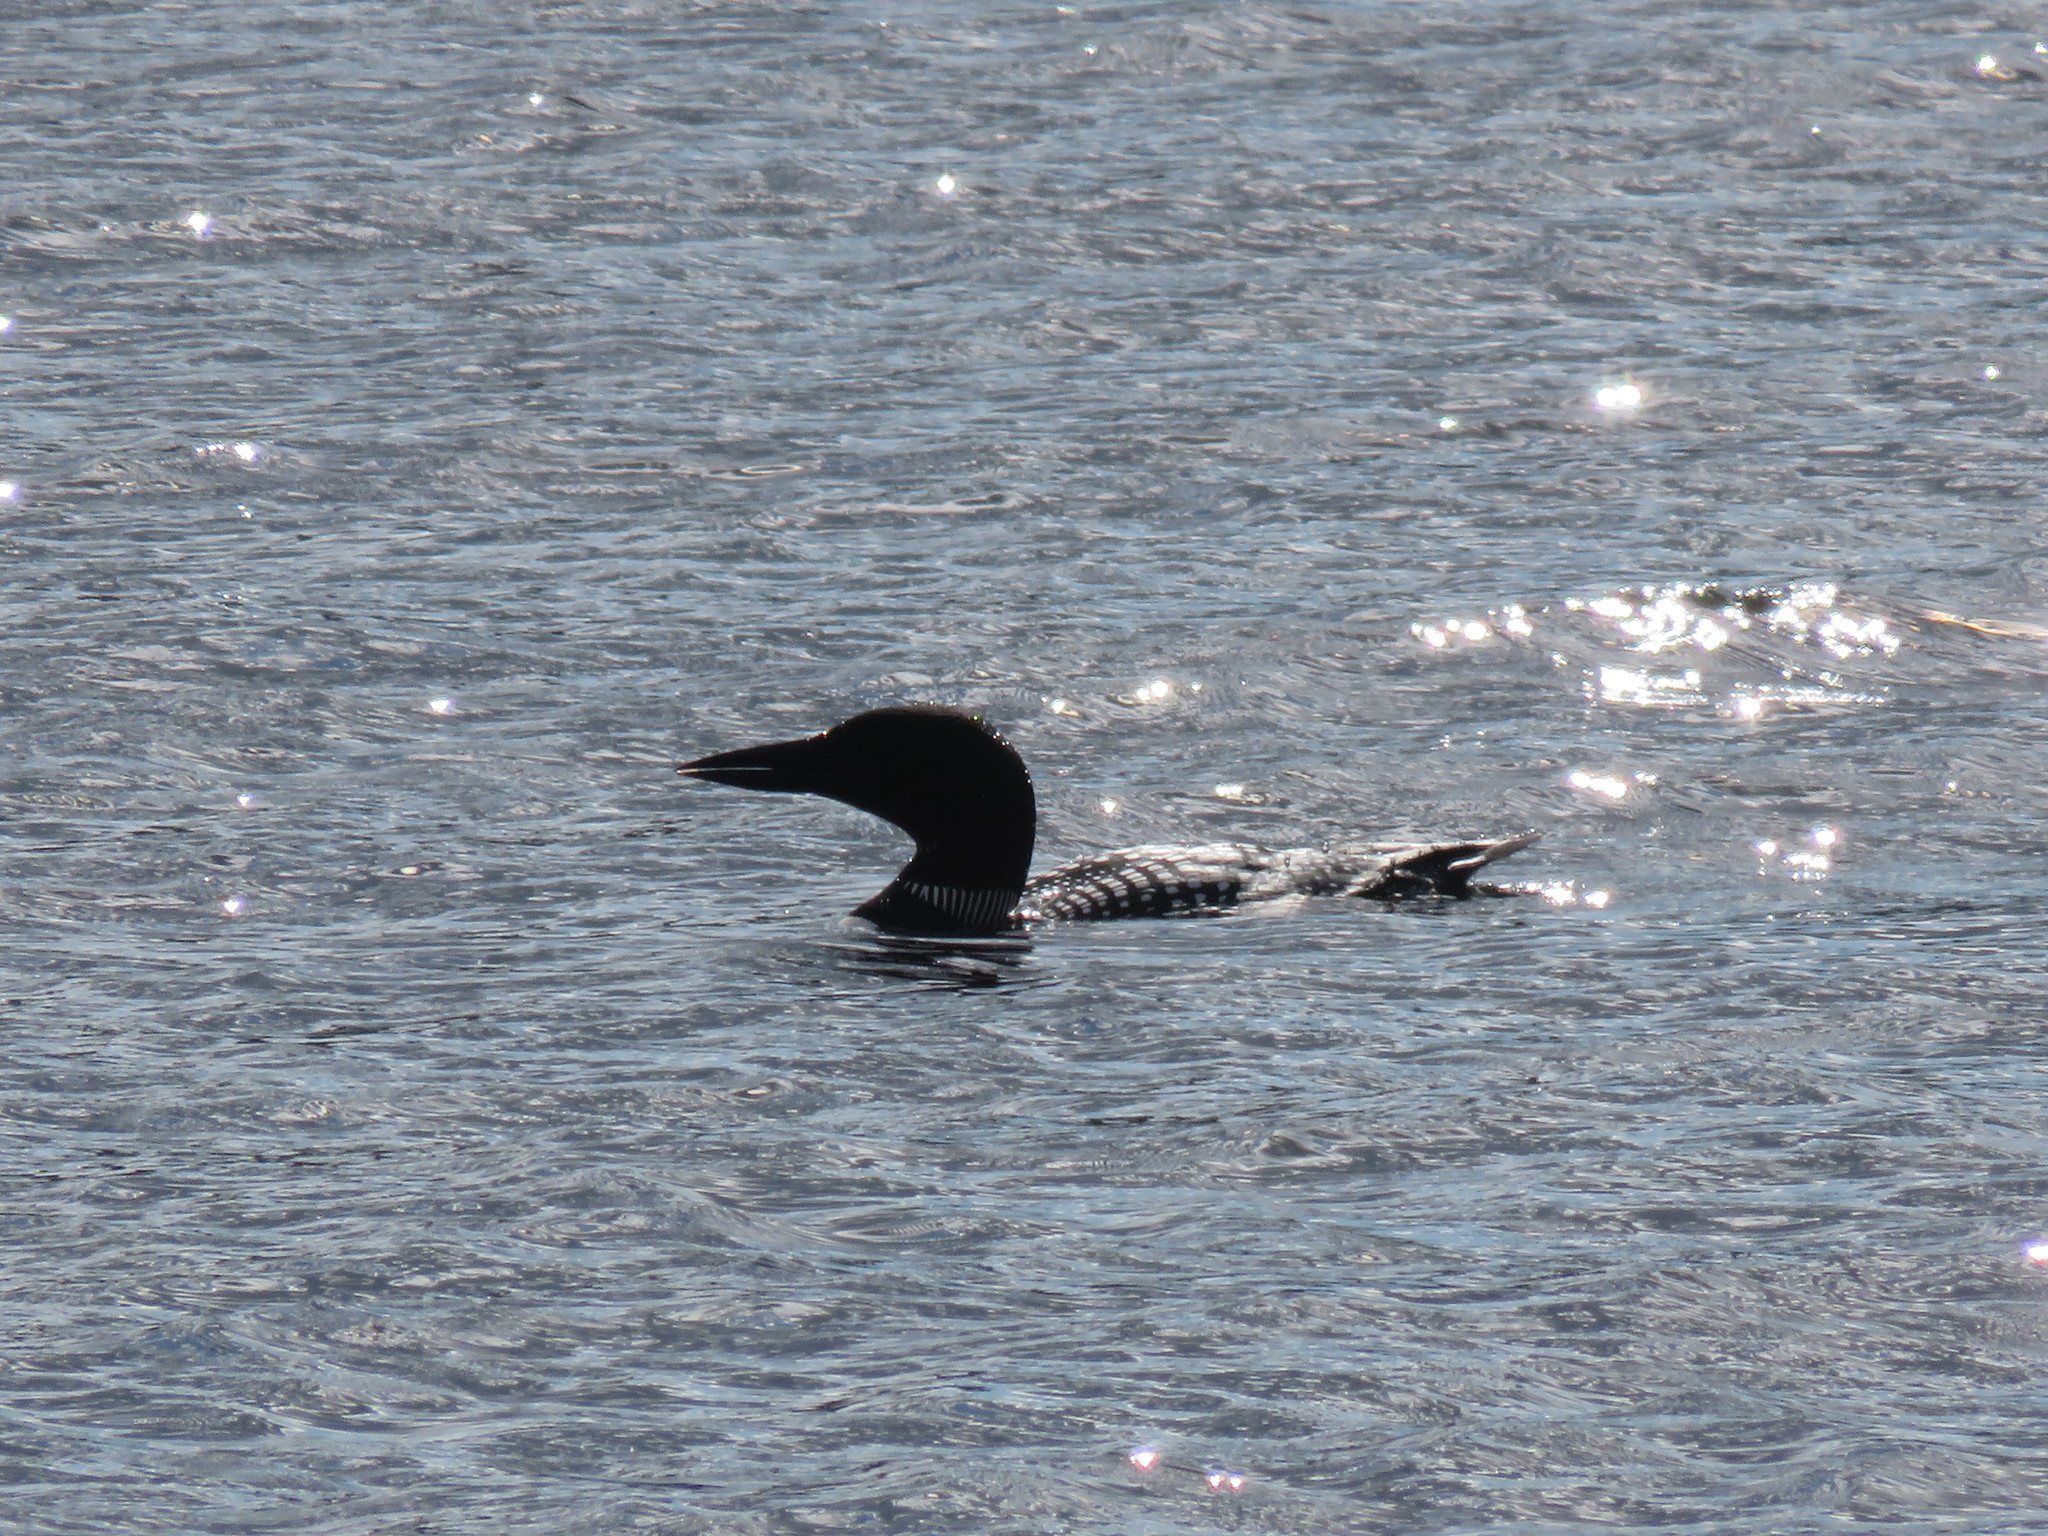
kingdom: Animalia
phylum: Chordata
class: Aves
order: Gaviiformes
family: Gaviidae
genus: Gavia
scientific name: Gavia immer
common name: Common loon
